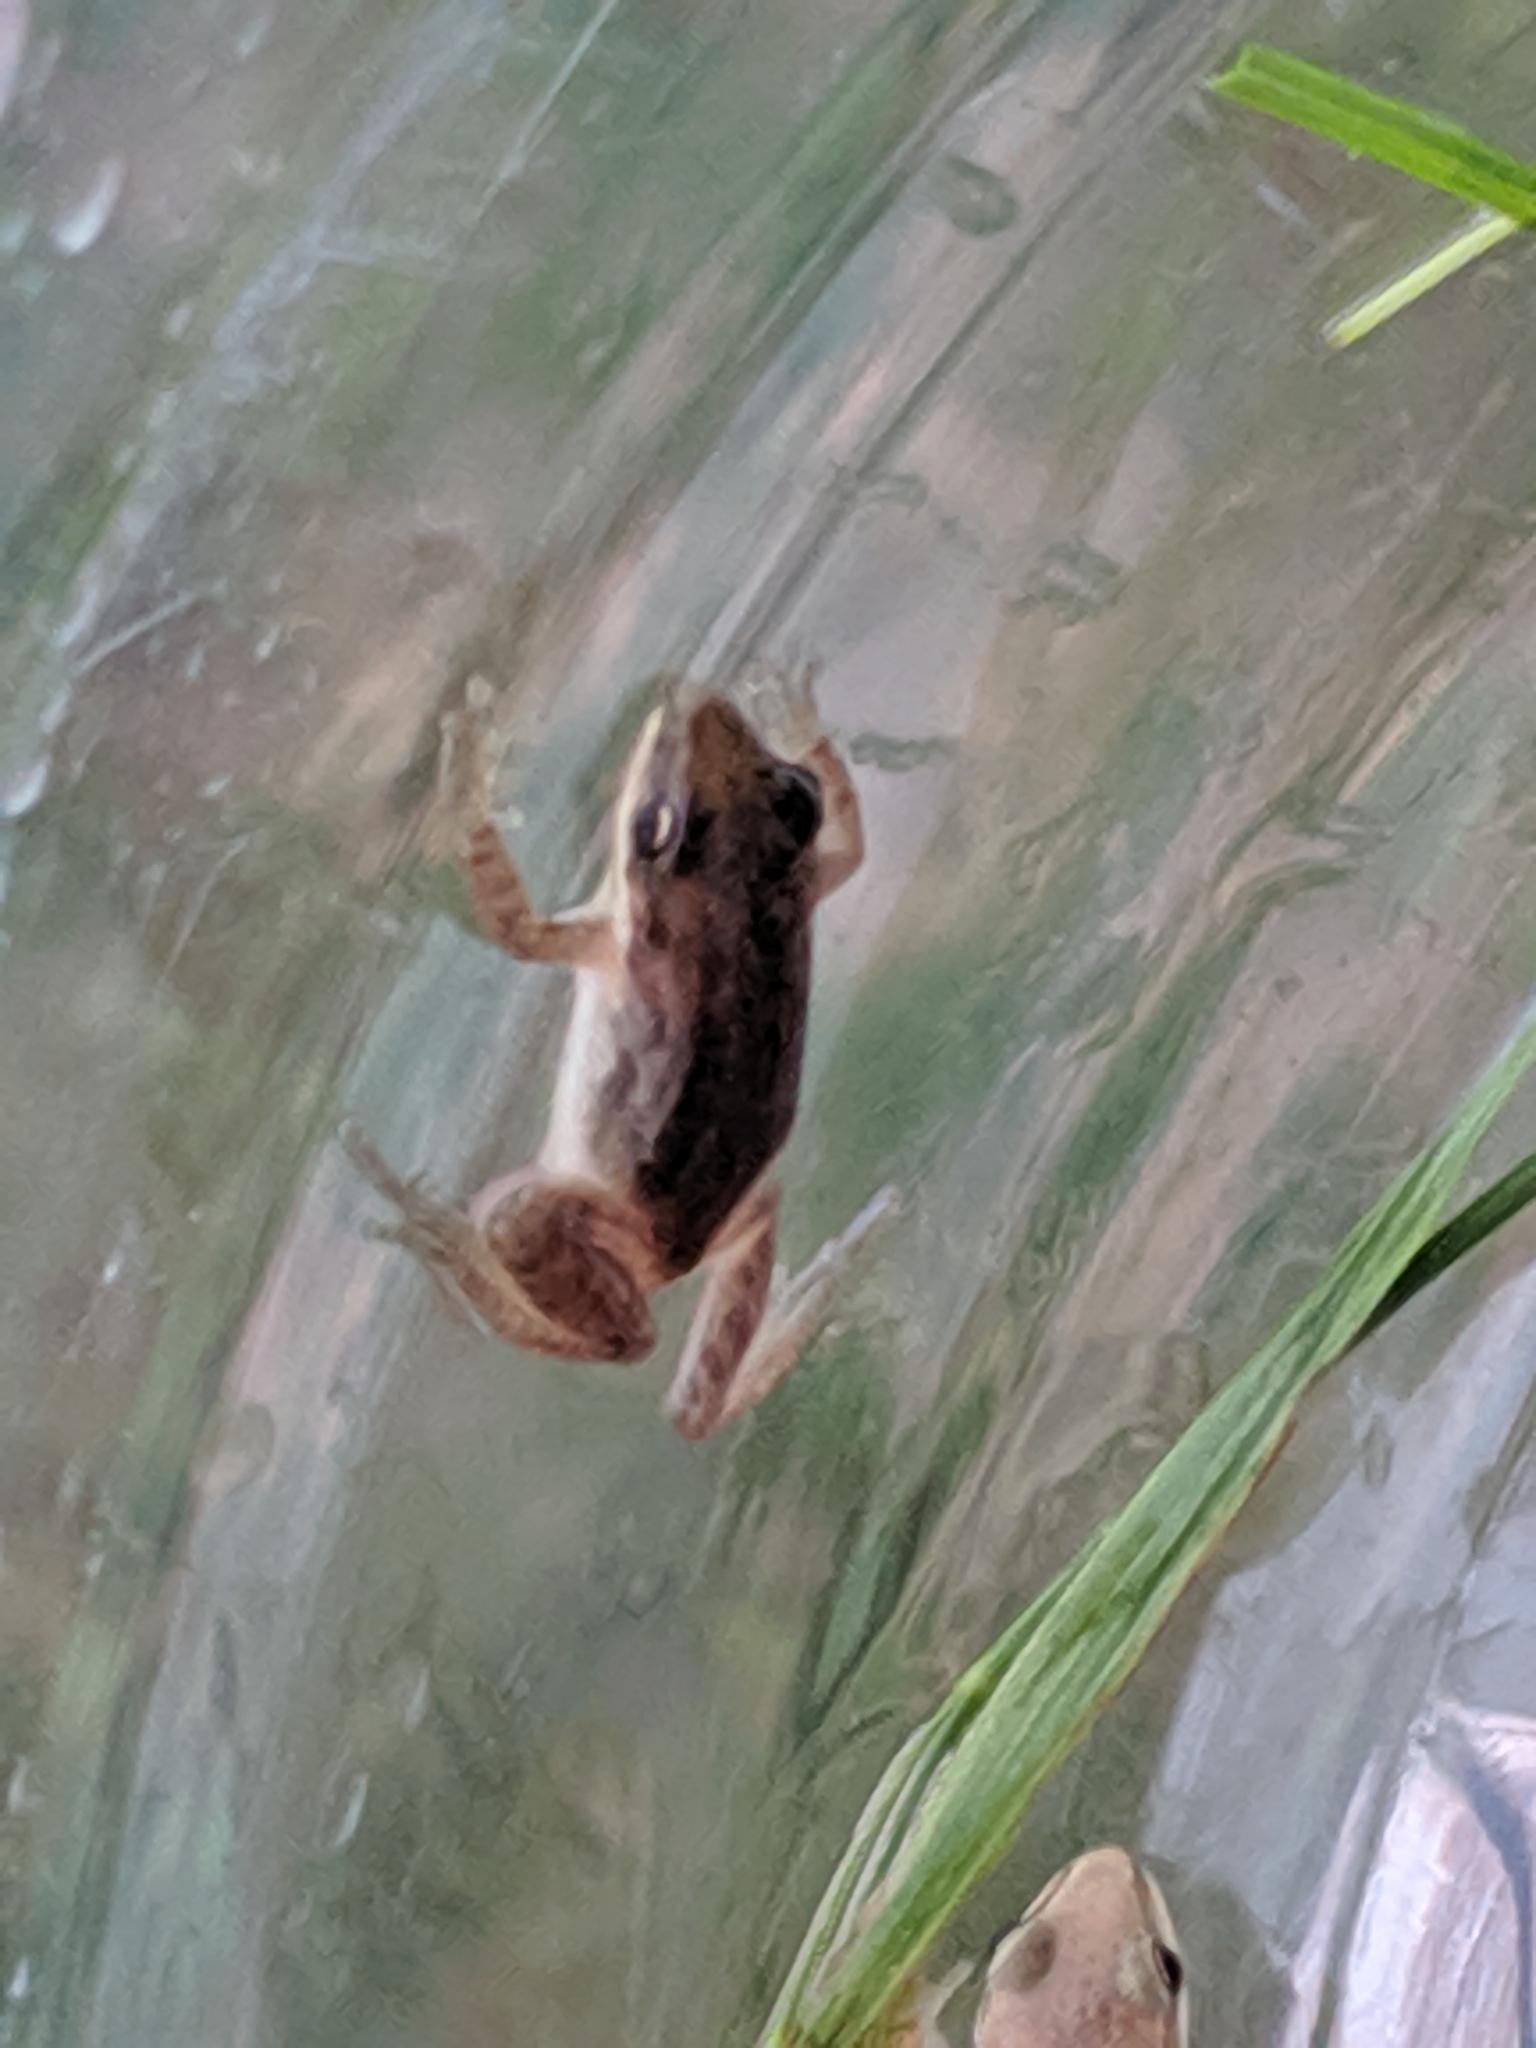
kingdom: Animalia
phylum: Chordata
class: Amphibia
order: Anura
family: Hylidae
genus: Pseudacris
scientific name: Pseudacris maculata
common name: Boreal chorus frog
